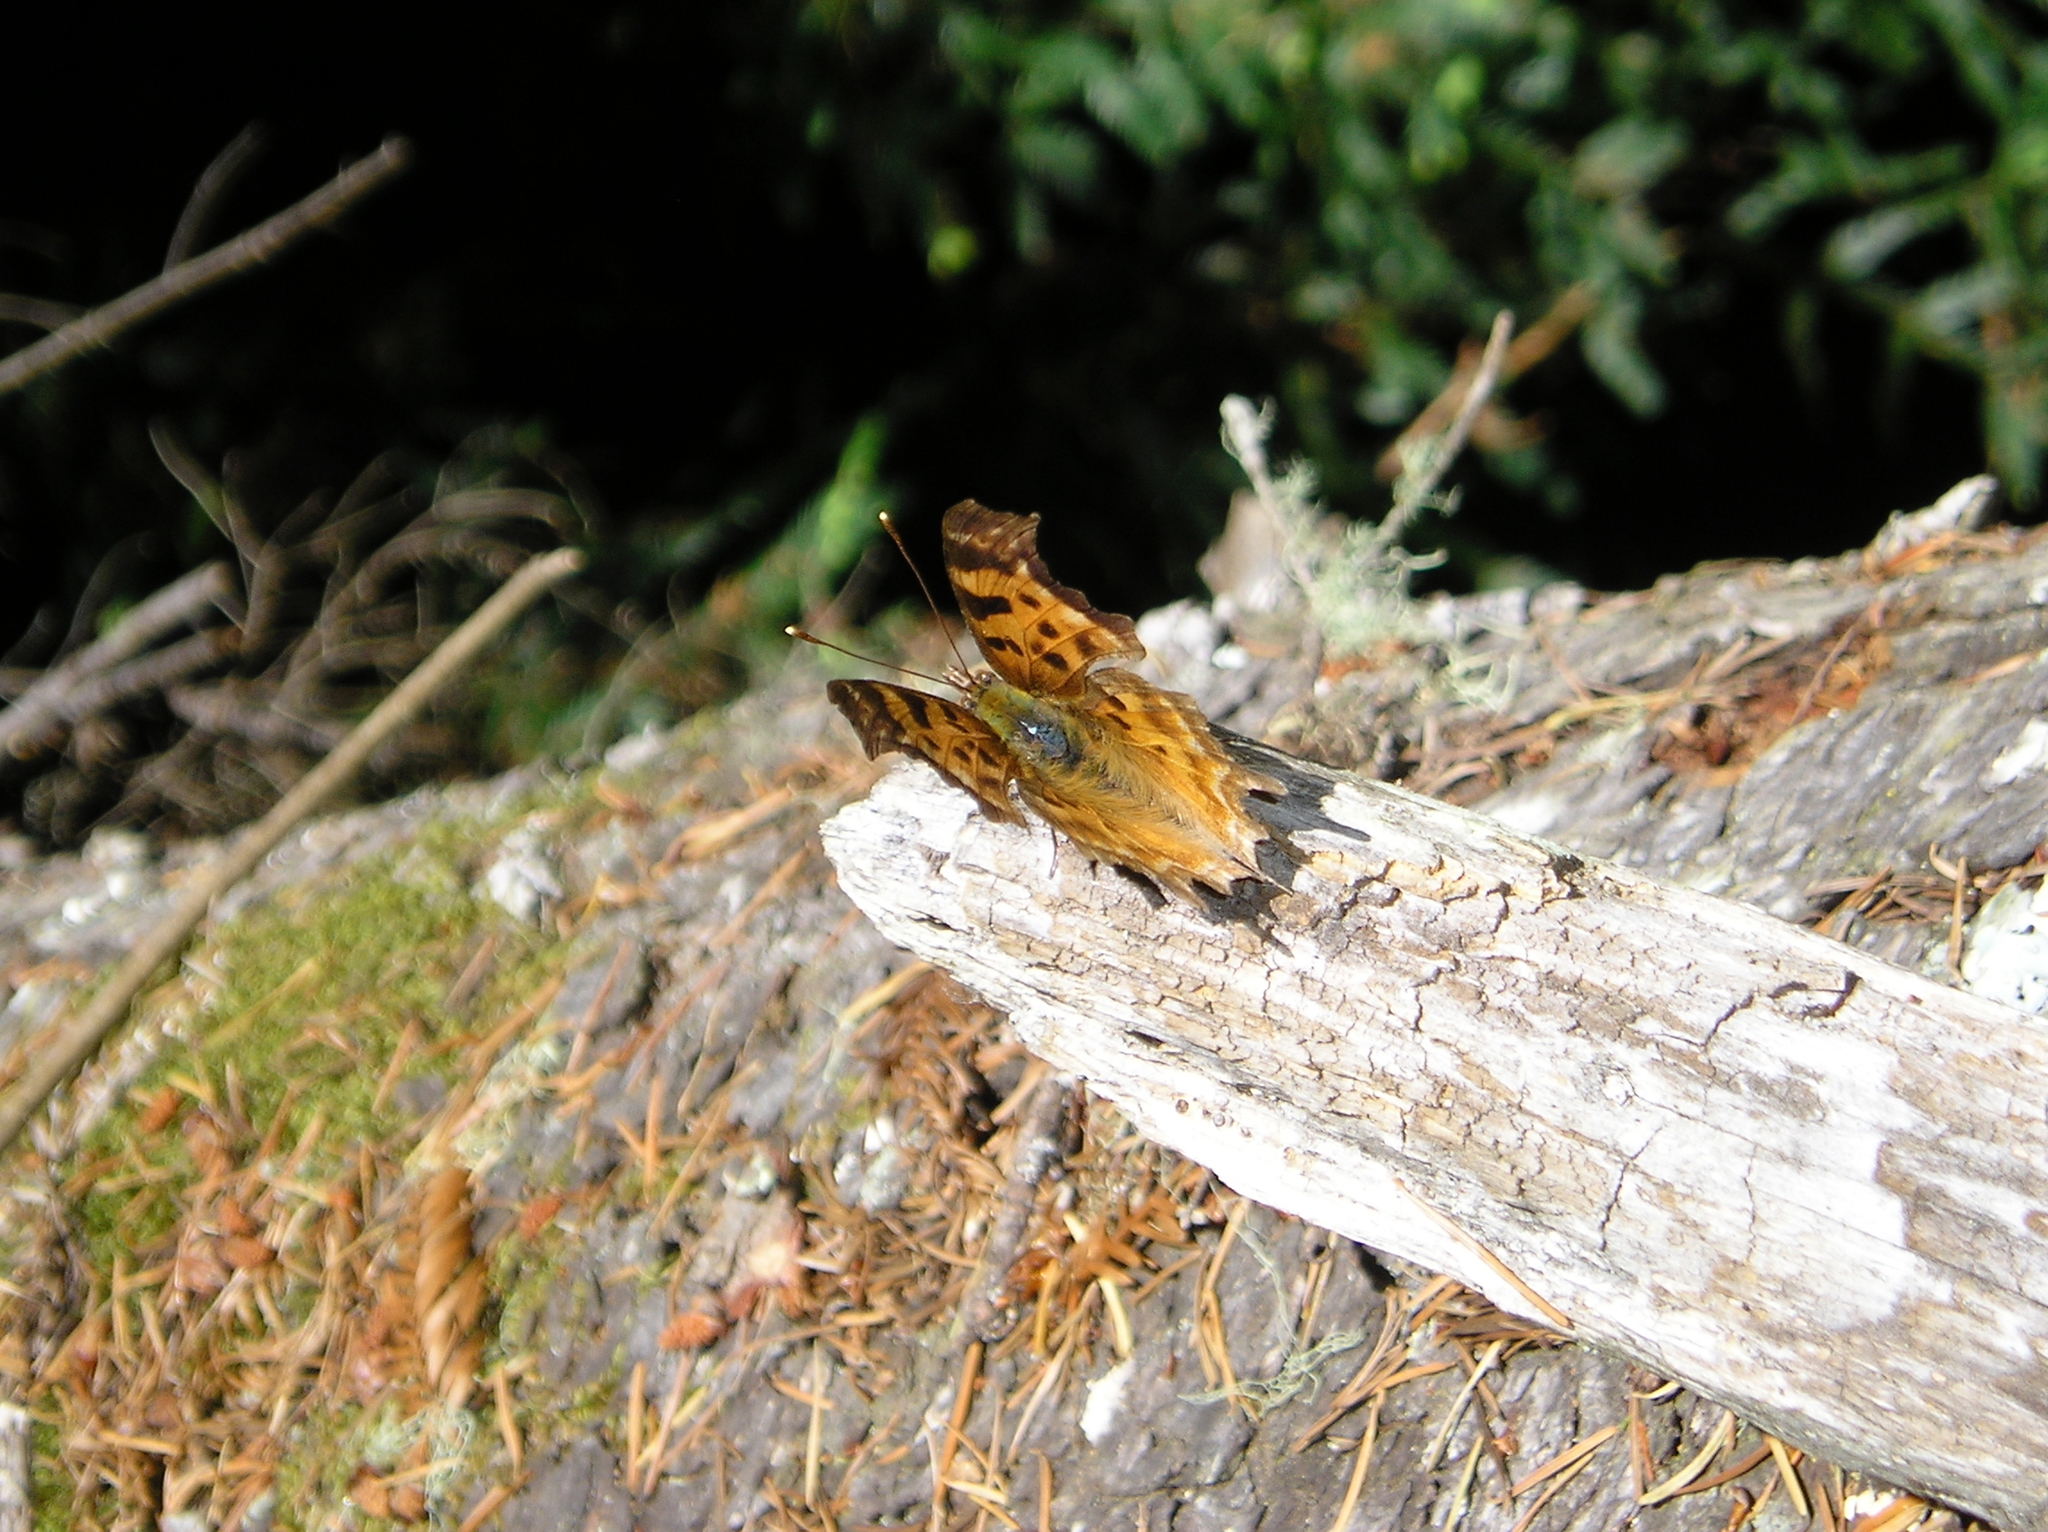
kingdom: Animalia
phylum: Arthropoda
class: Insecta
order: Lepidoptera
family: Nymphalidae
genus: Polygonia
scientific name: Polygonia satyrus
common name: Satyr angle wing
